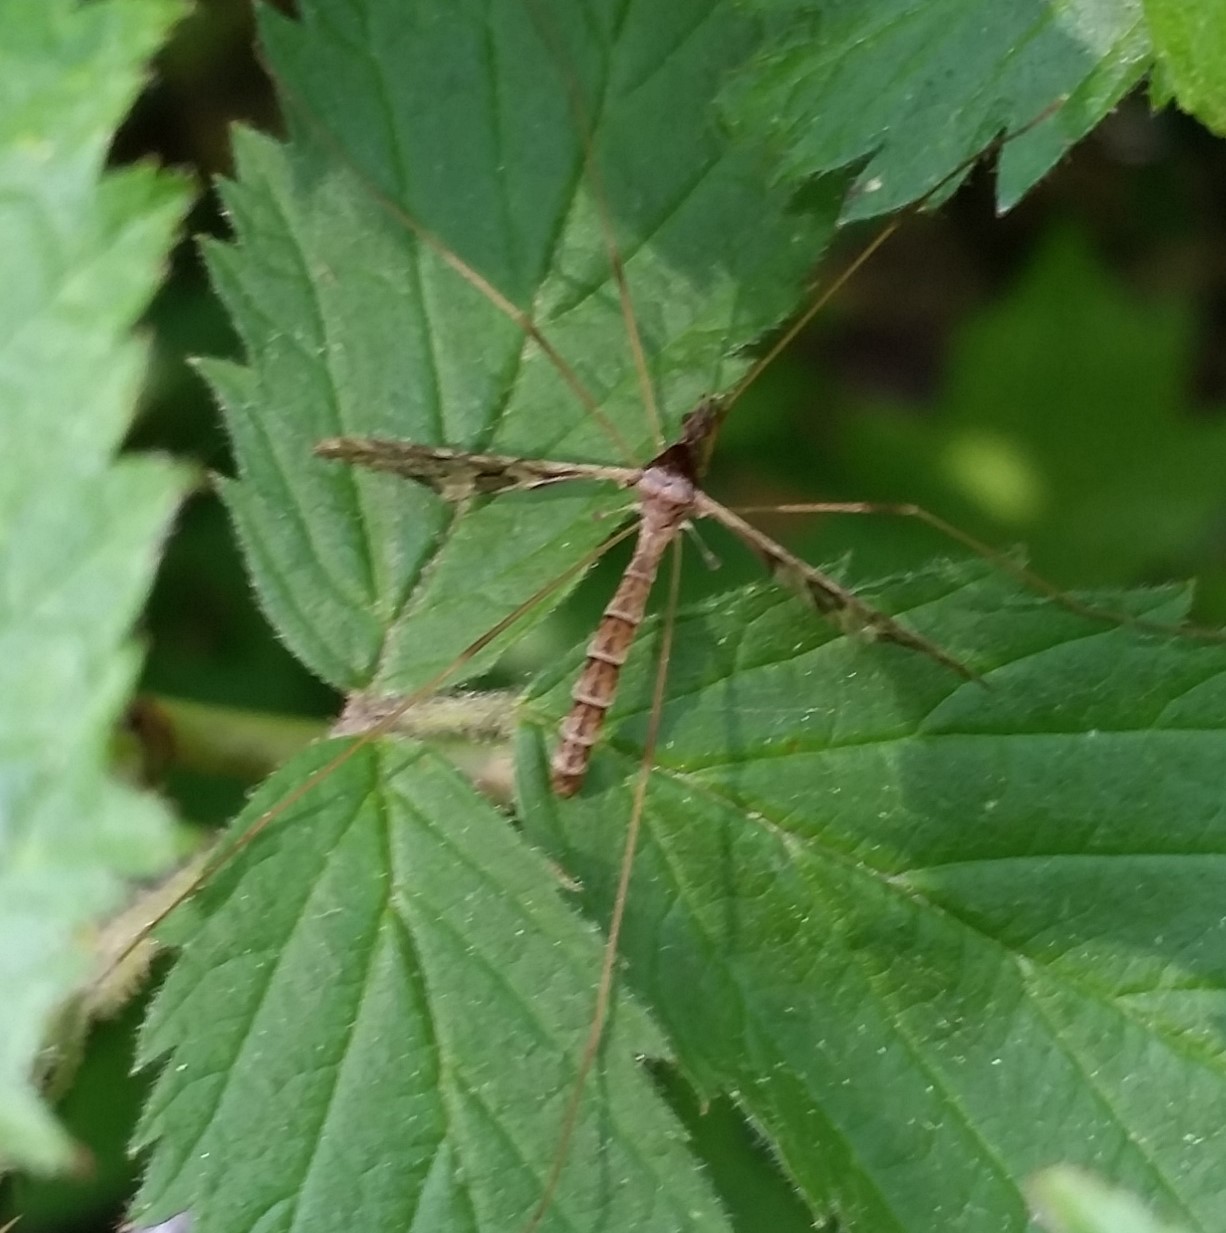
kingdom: Animalia
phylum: Arthropoda
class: Insecta
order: Diptera
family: Limoniidae
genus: Epiphragma
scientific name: Epiphragma solatrix
